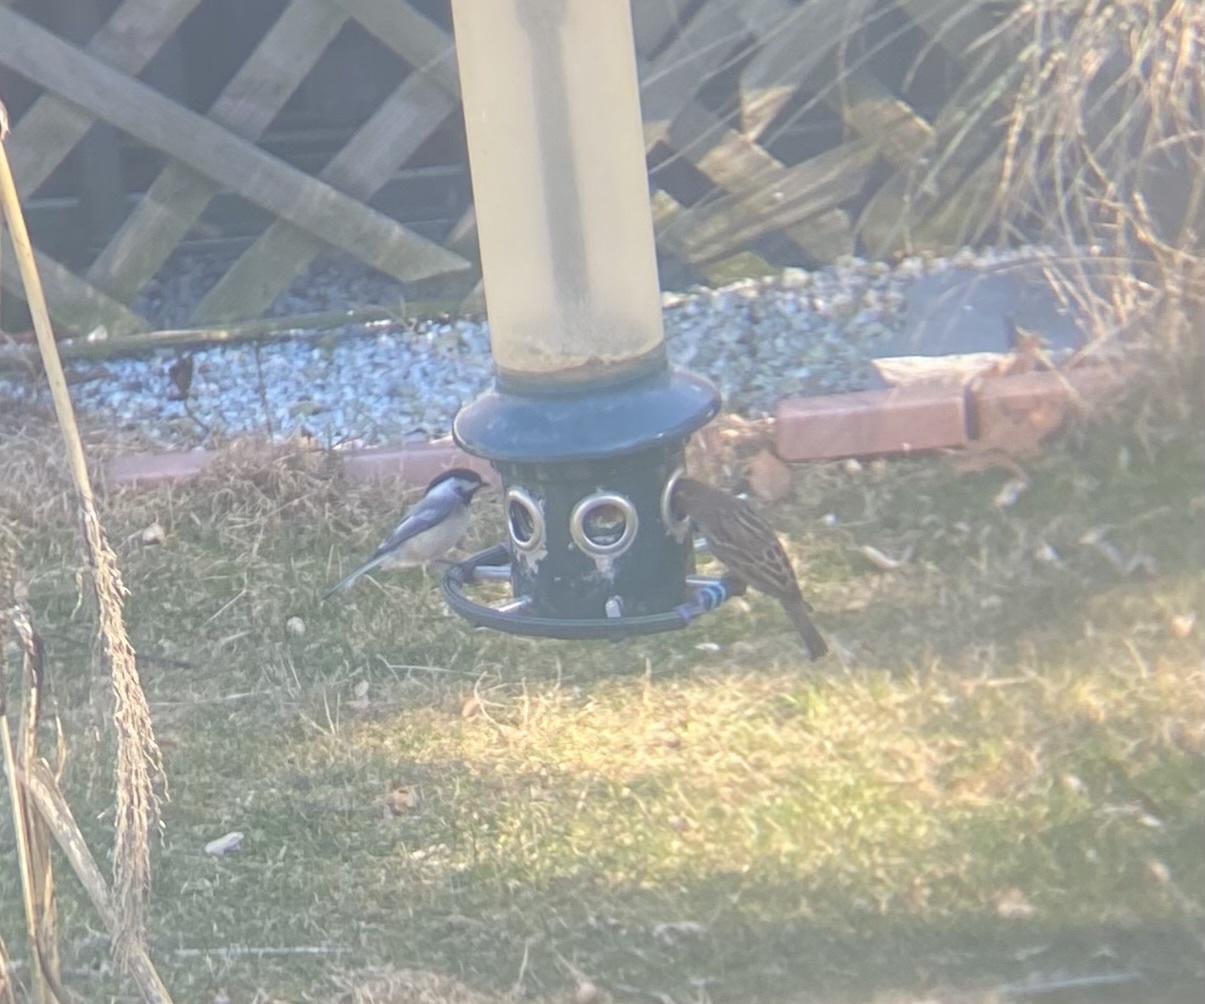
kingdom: Animalia
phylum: Chordata
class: Aves
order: Passeriformes
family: Paridae
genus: Poecile
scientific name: Poecile atricapillus
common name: Black-capped chickadee
